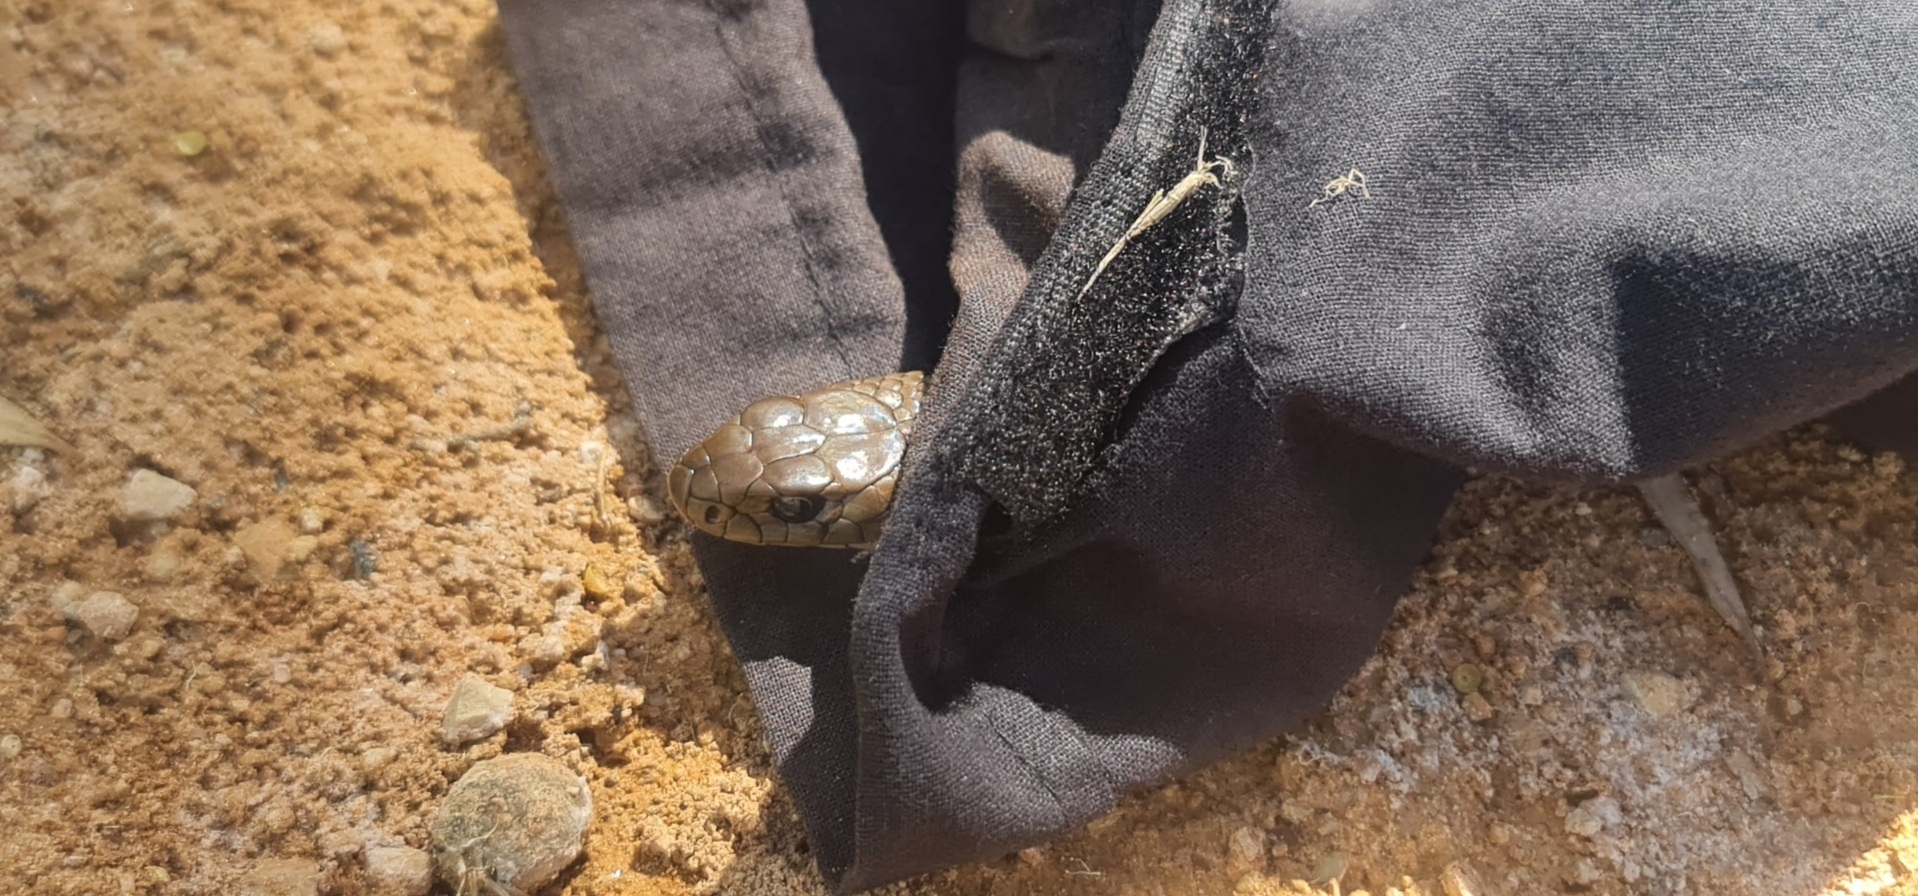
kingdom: Animalia
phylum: Chordata
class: Squamata
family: Elapidae
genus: Pseudonaja
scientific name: Pseudonaja textilis
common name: Eastern brown snake
